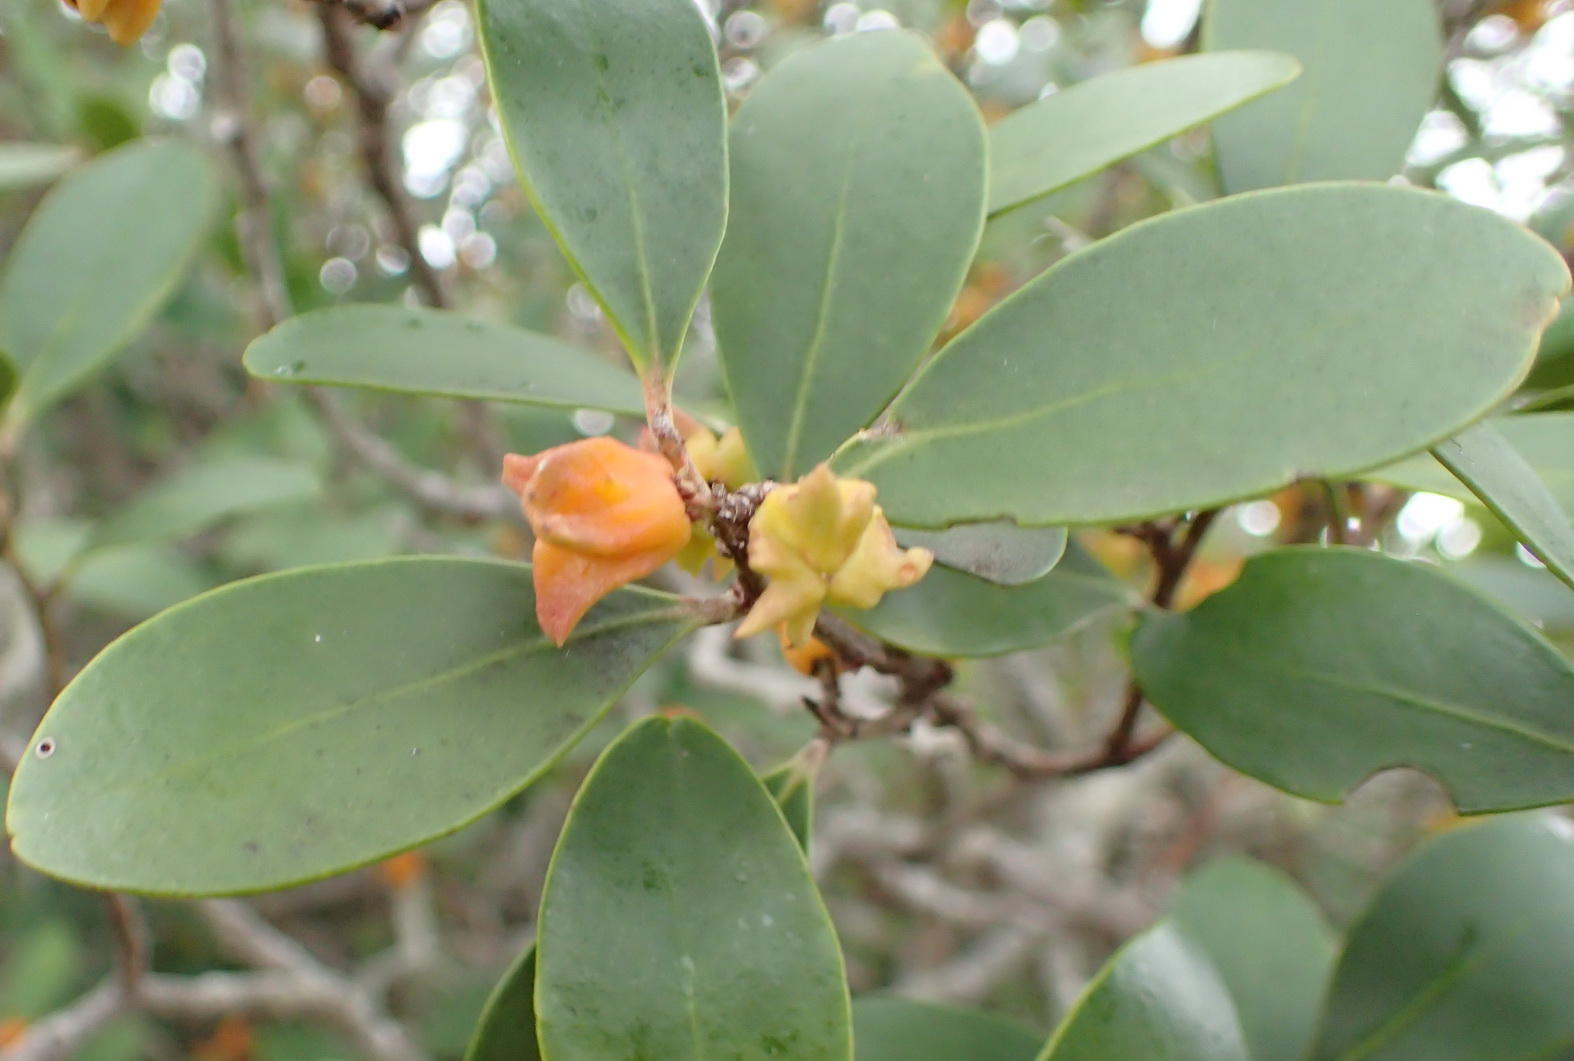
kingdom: Plantae
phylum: Tracheophyta
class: Magnoliopsida
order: Celastrales
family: Celastraceae
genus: Pterocelastrus
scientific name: Pterocelastrus tricuspidatus
